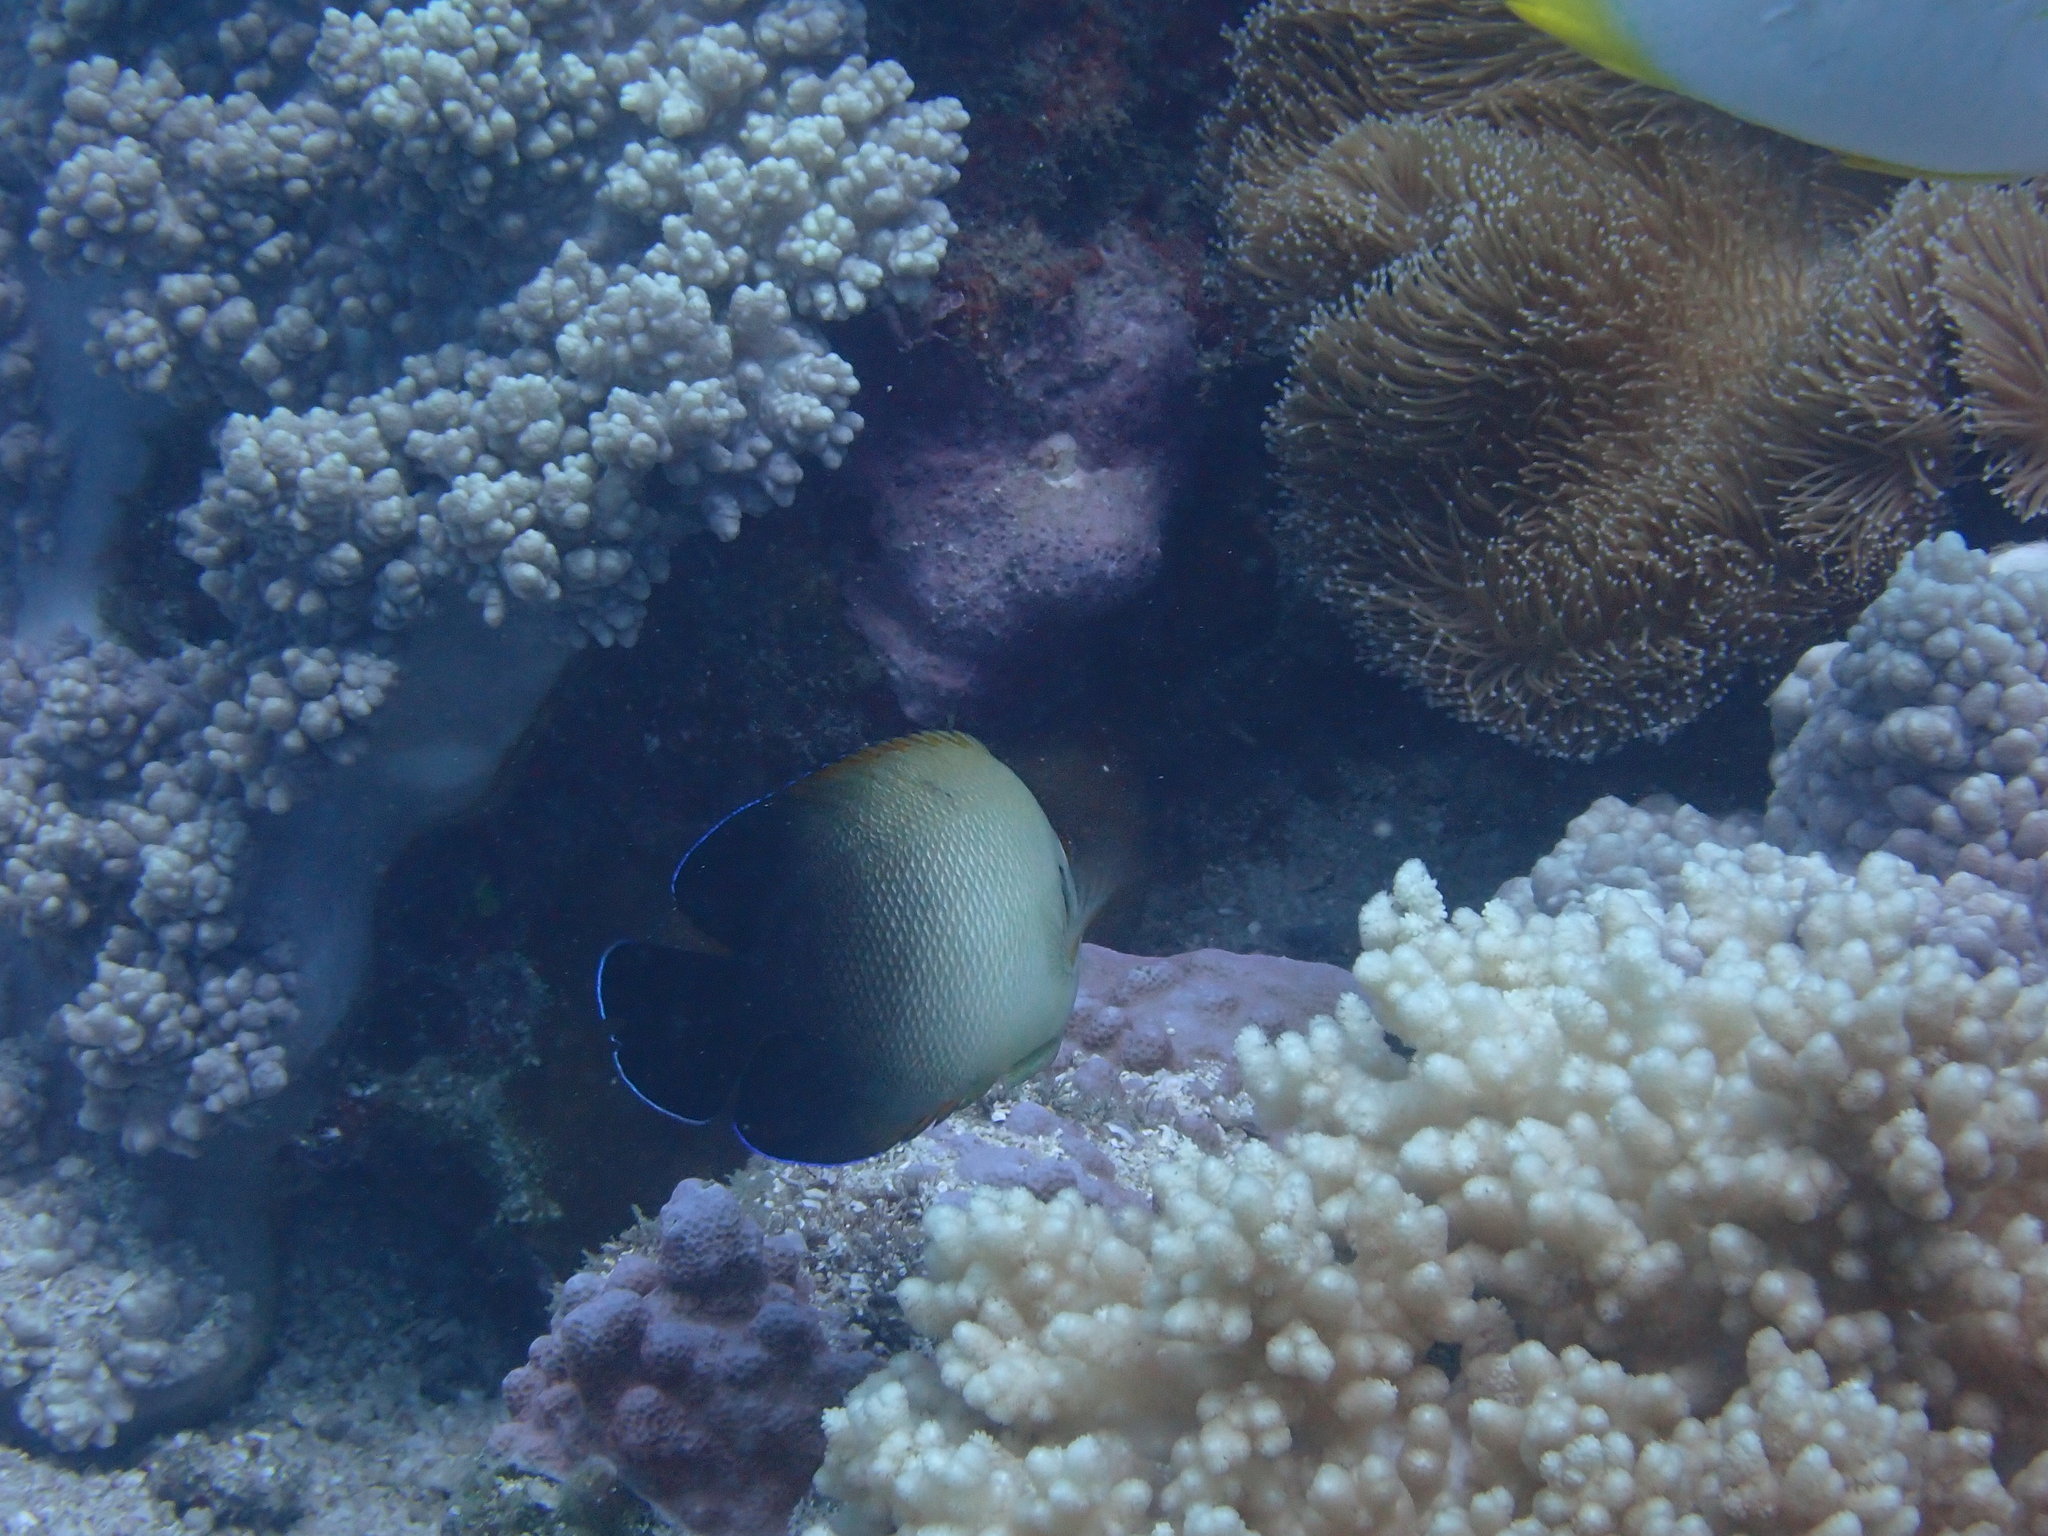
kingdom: Animalia
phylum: Chordata
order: Perciformes
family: Pomacanthidae
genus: Centropyge
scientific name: Centropyge vrolikii
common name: Pearlscale angelfish
